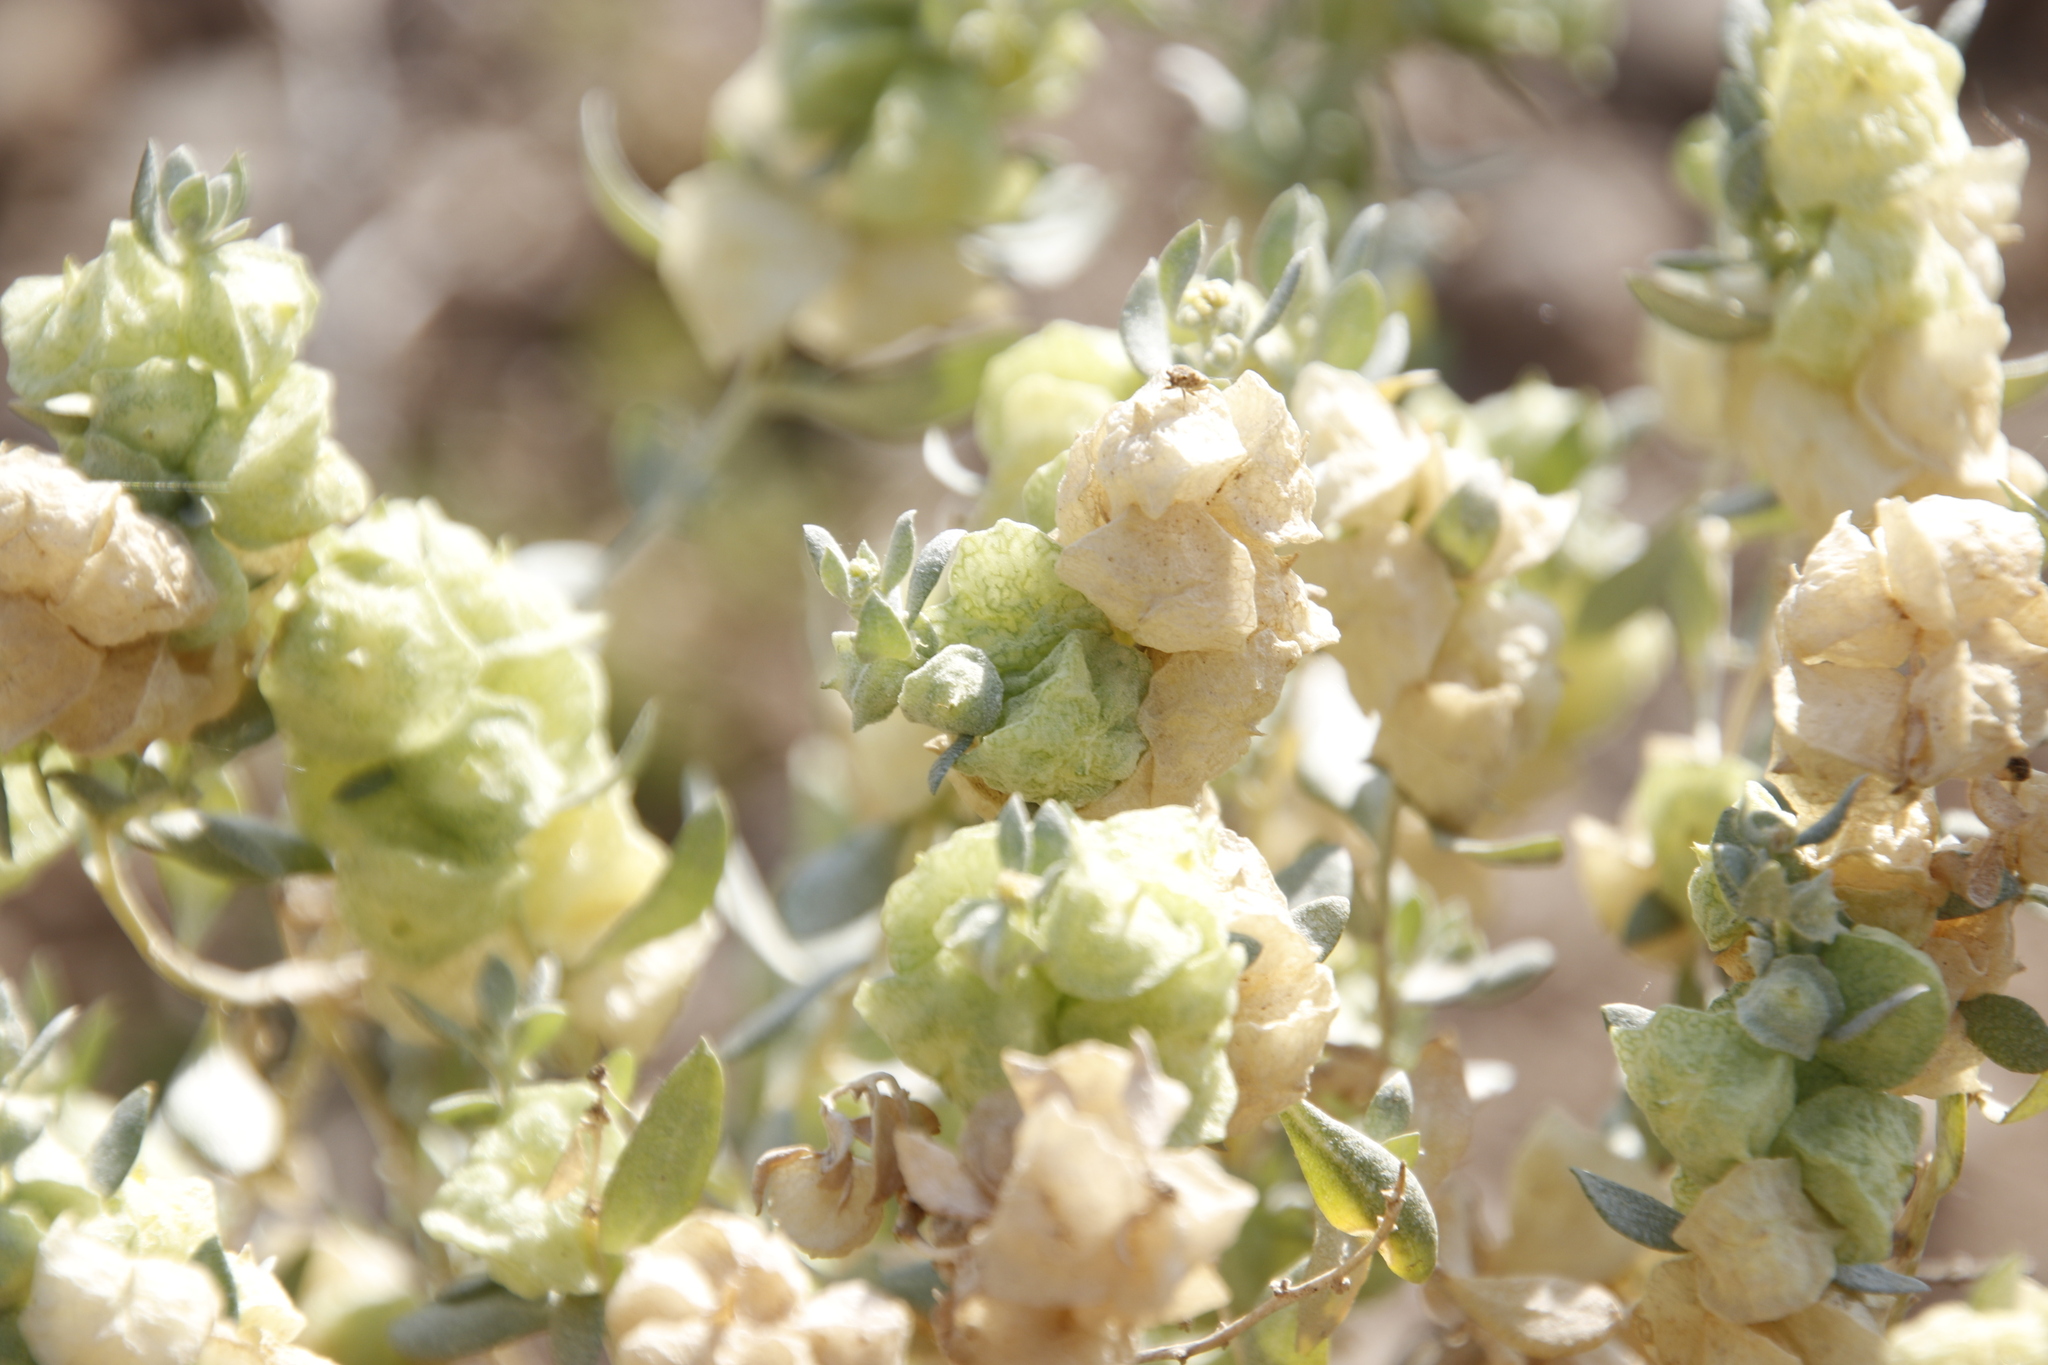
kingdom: Plantae
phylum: Tracheophyta
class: Magnoliopsida
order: Caryophyllales
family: Amaranthaceae
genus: Atriplex
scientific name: Atriplex lindleyi
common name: Lindley's saltbush
